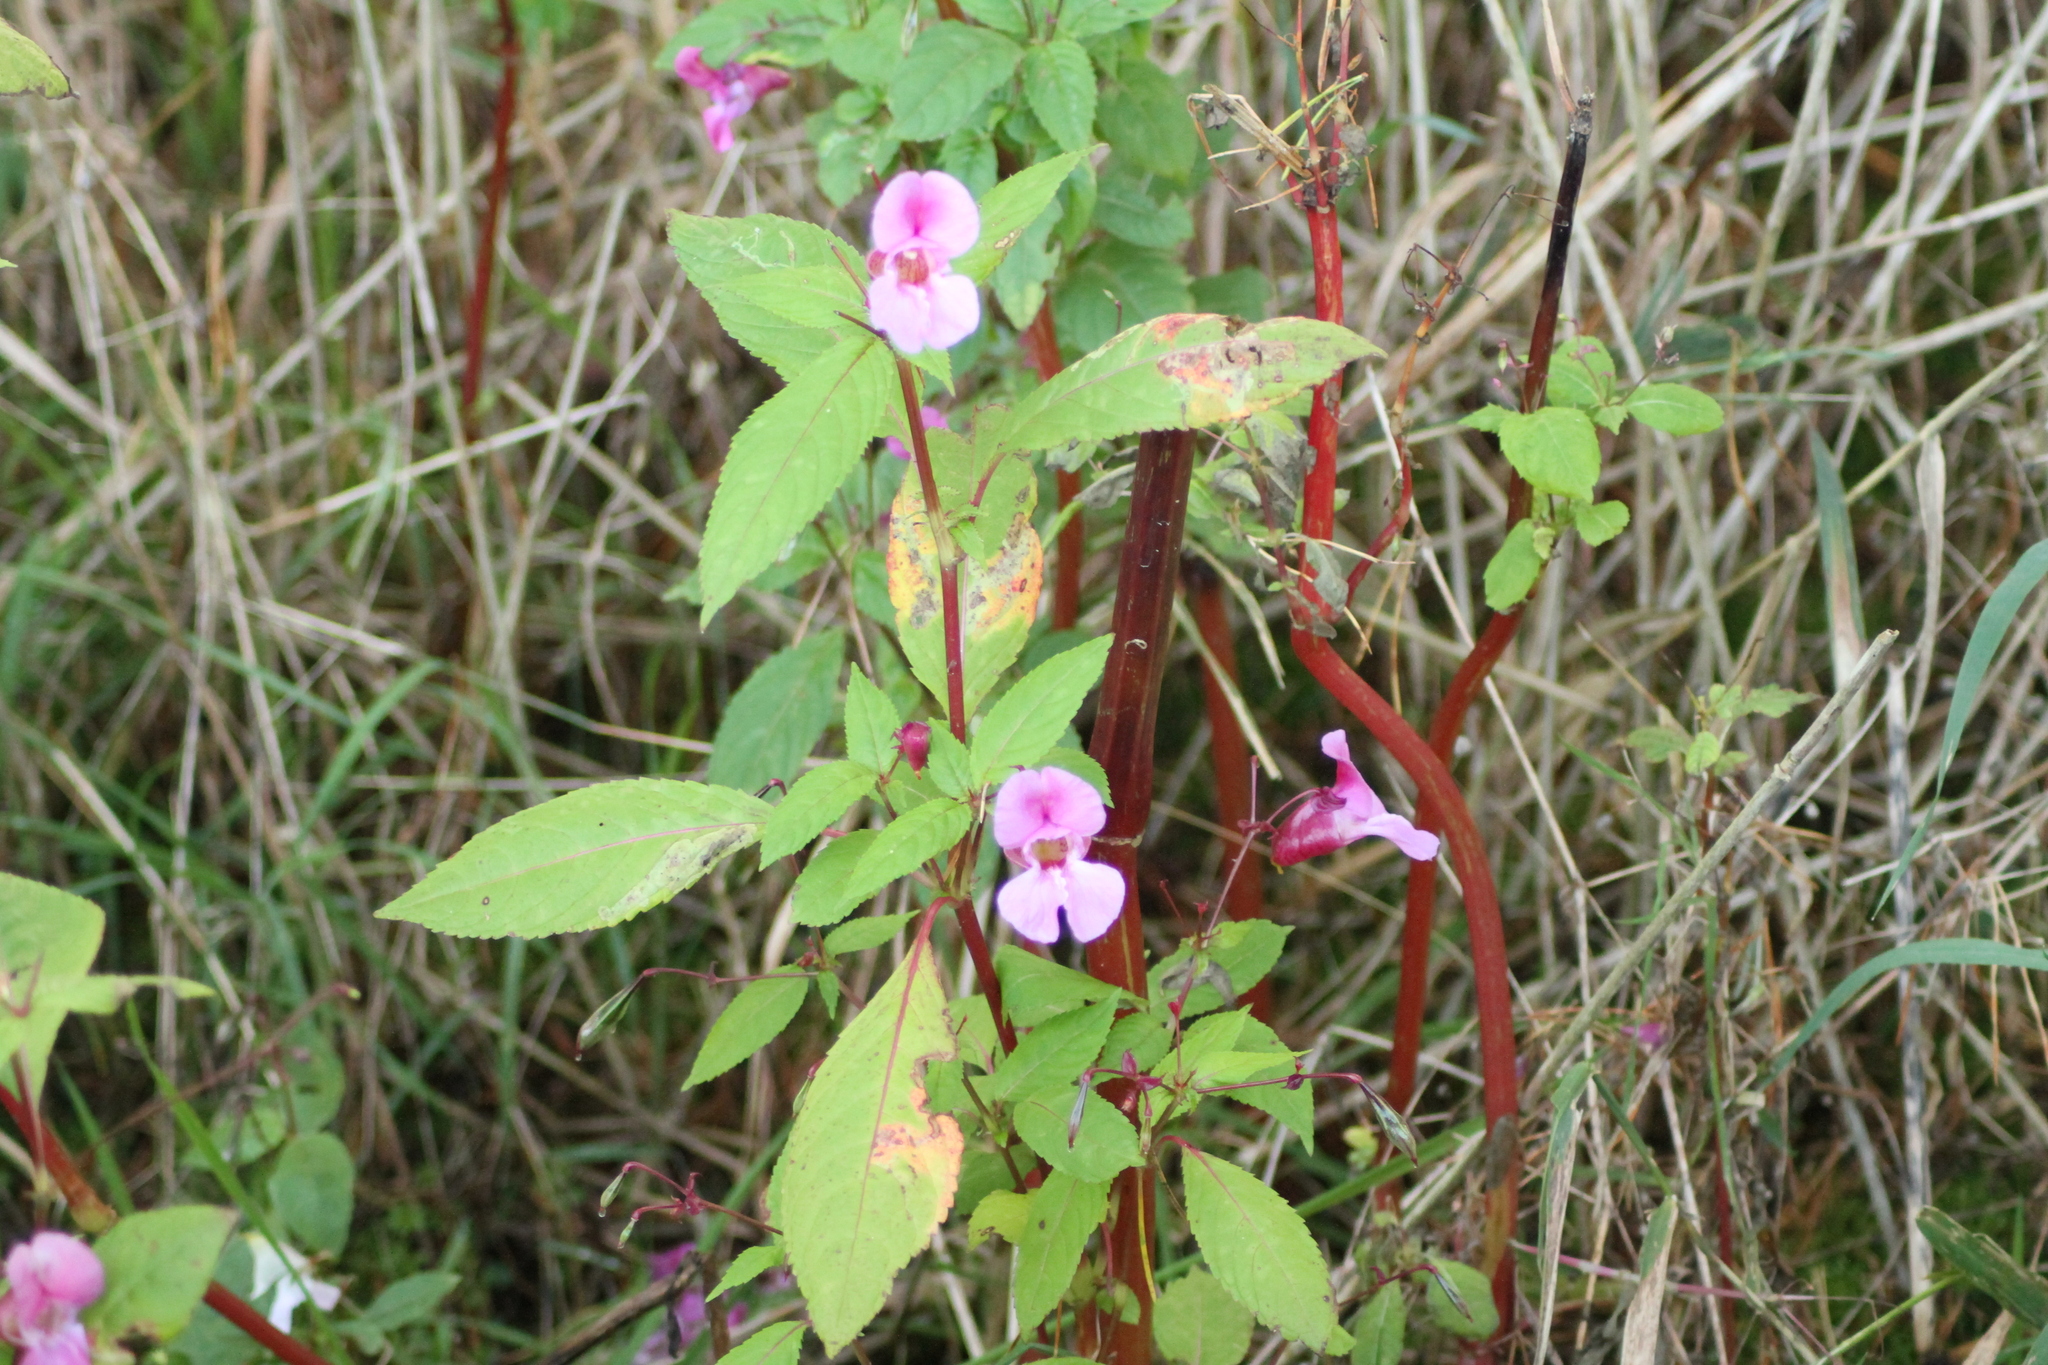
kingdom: Plantae
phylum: Tracheophyta
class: Magnoliopsida
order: Ericales
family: Balsaminaceae
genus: Impatiens
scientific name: Impatiens glandulifera
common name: Himalayan balsam
